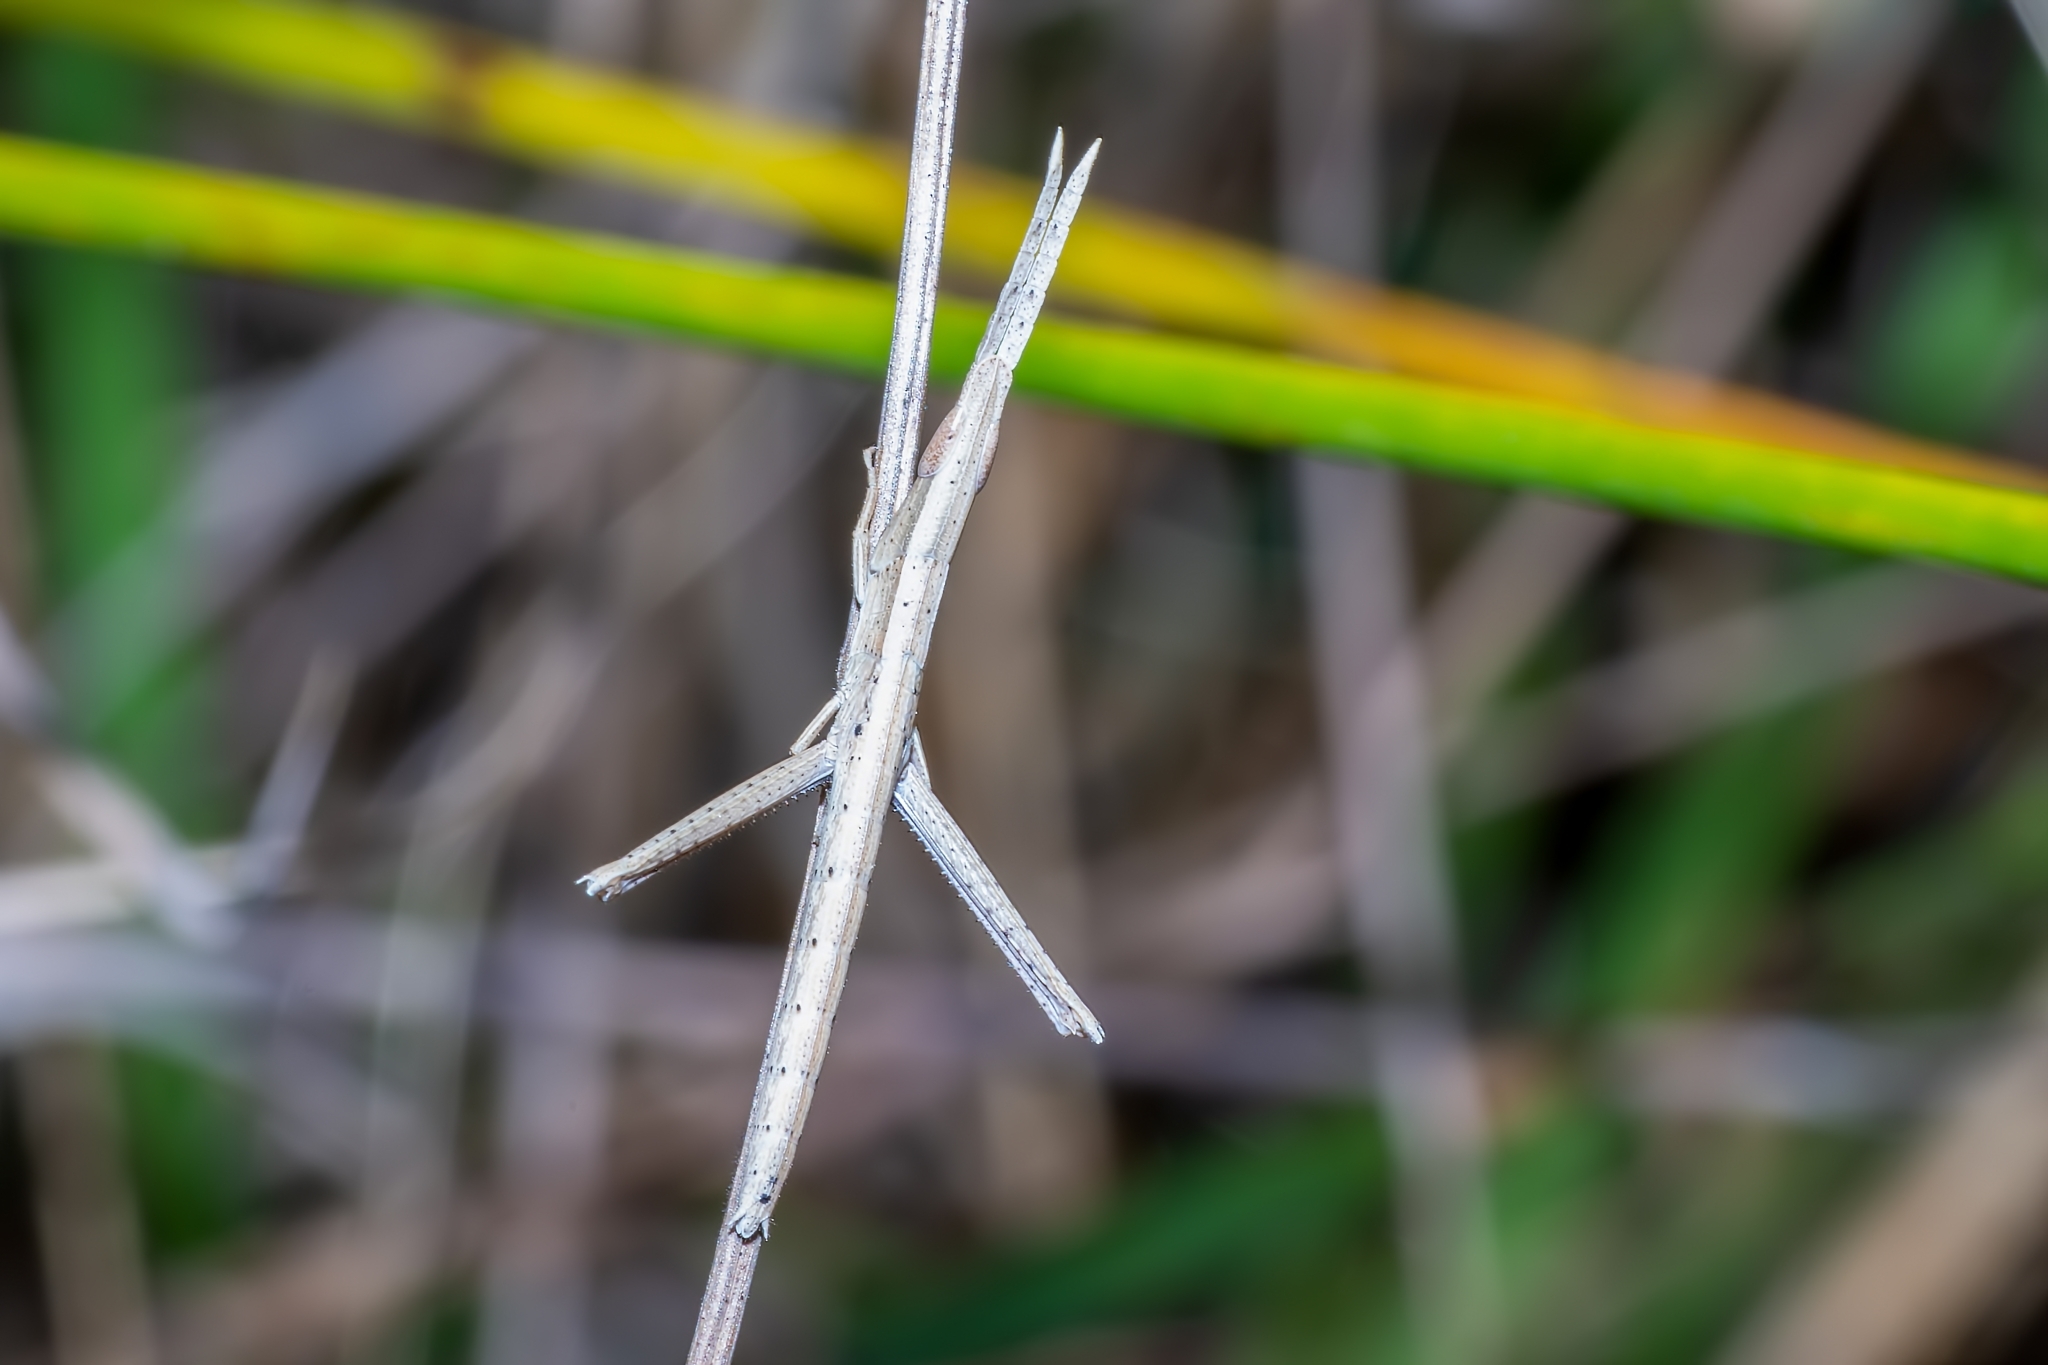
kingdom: Animalia
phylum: Arthropoda
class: Insecta
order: Orthoptera
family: Acrididae
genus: Achurum
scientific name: Achurum carinatum
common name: Long-headed toothpick grasshopper
